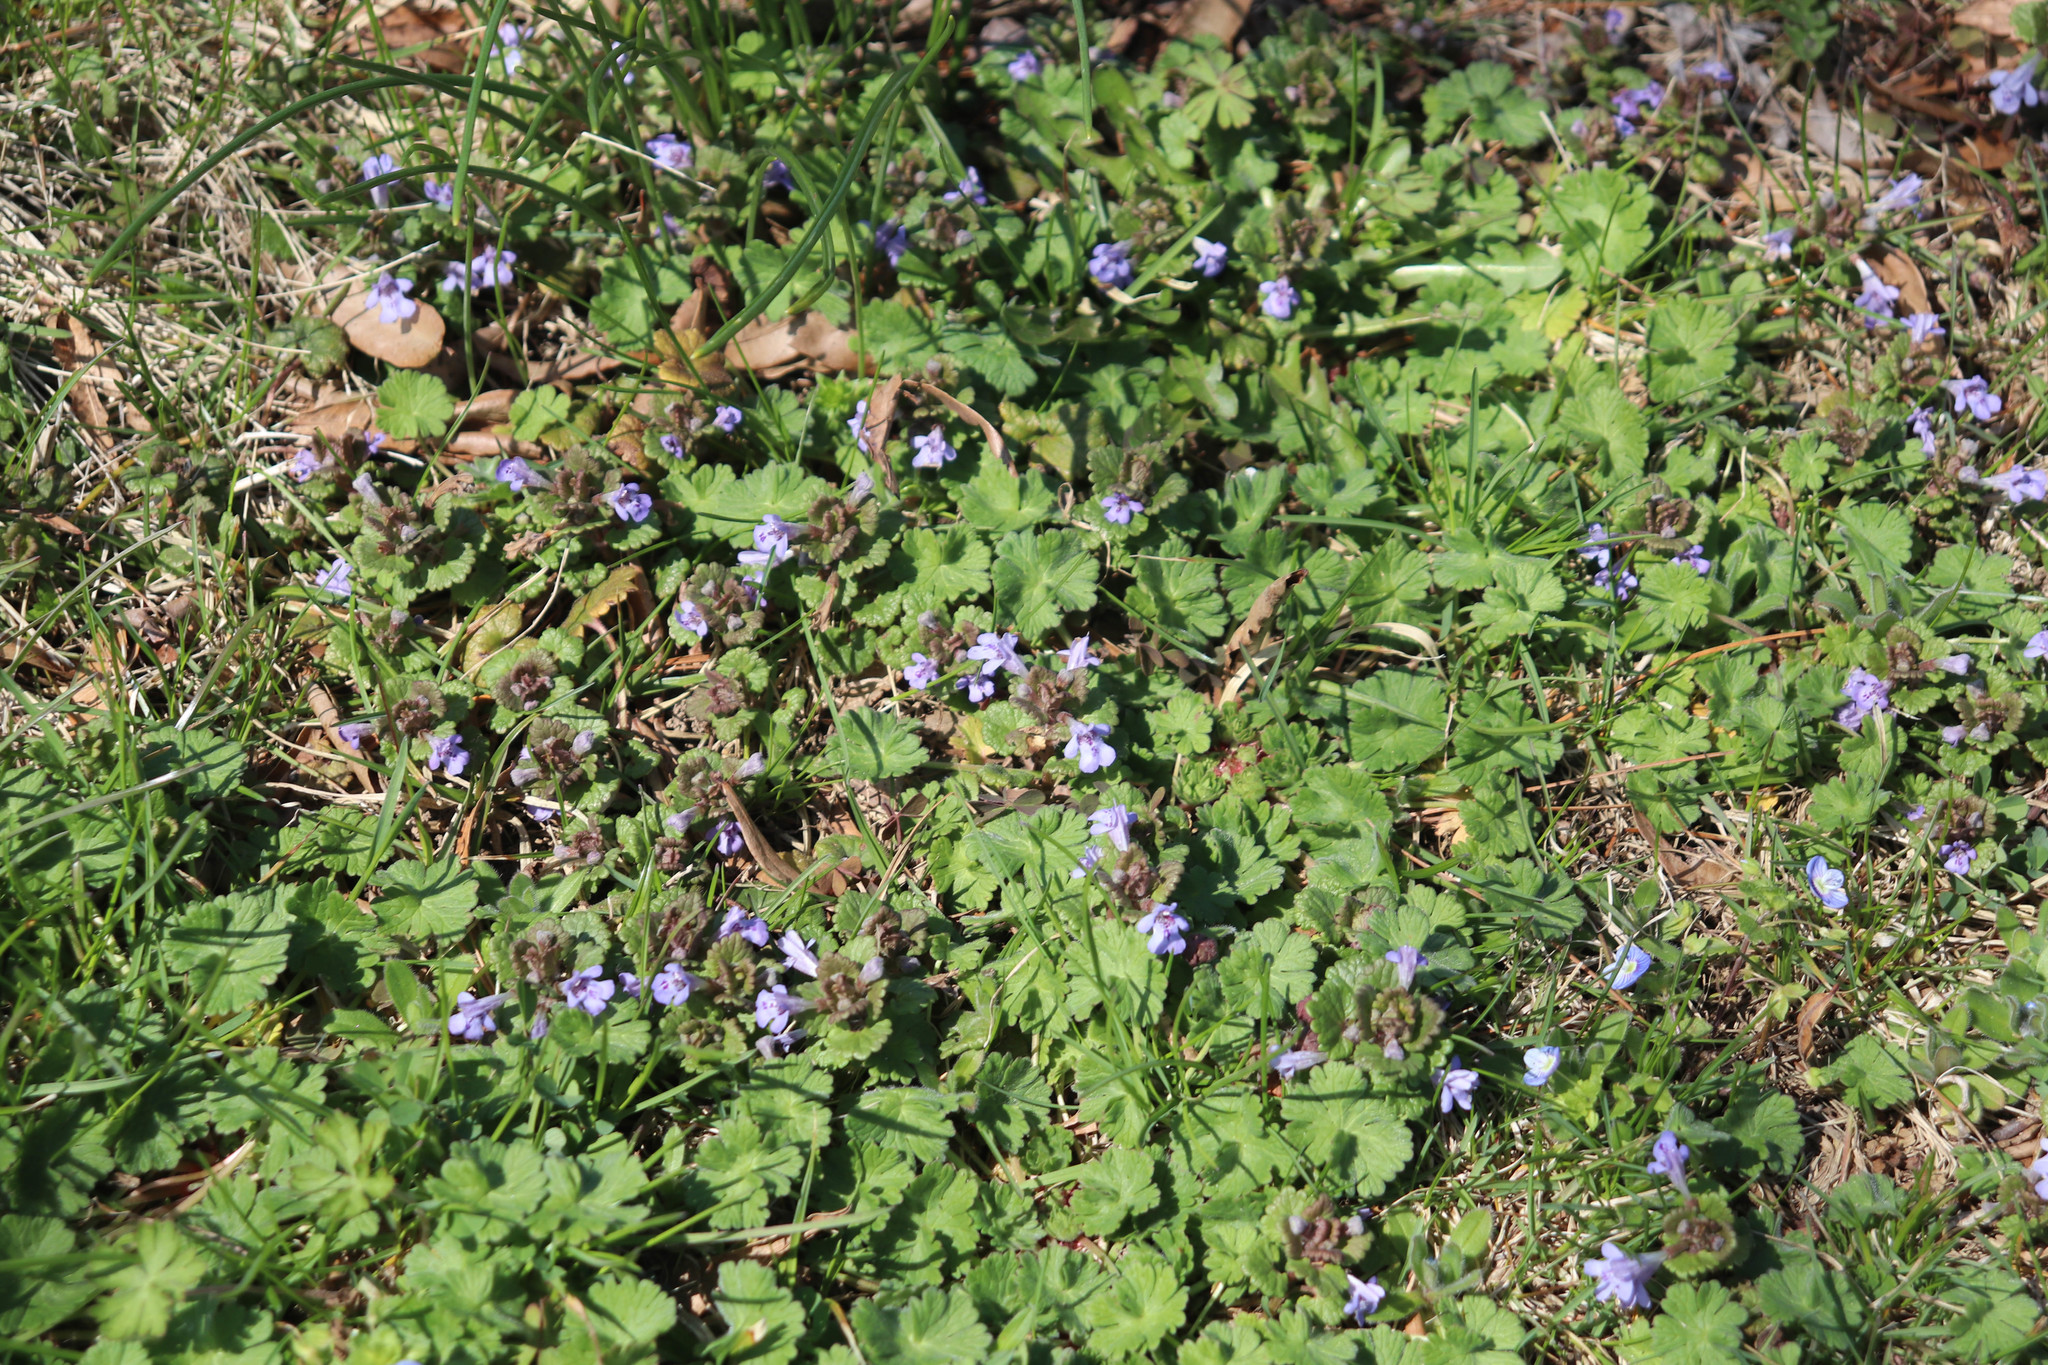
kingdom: Plantae
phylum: Tracheophyta
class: Magnoliopsida
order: Lamiales
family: Lamiaceae
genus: Glechoma
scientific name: Glechoma hederacea
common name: Ground ivy
